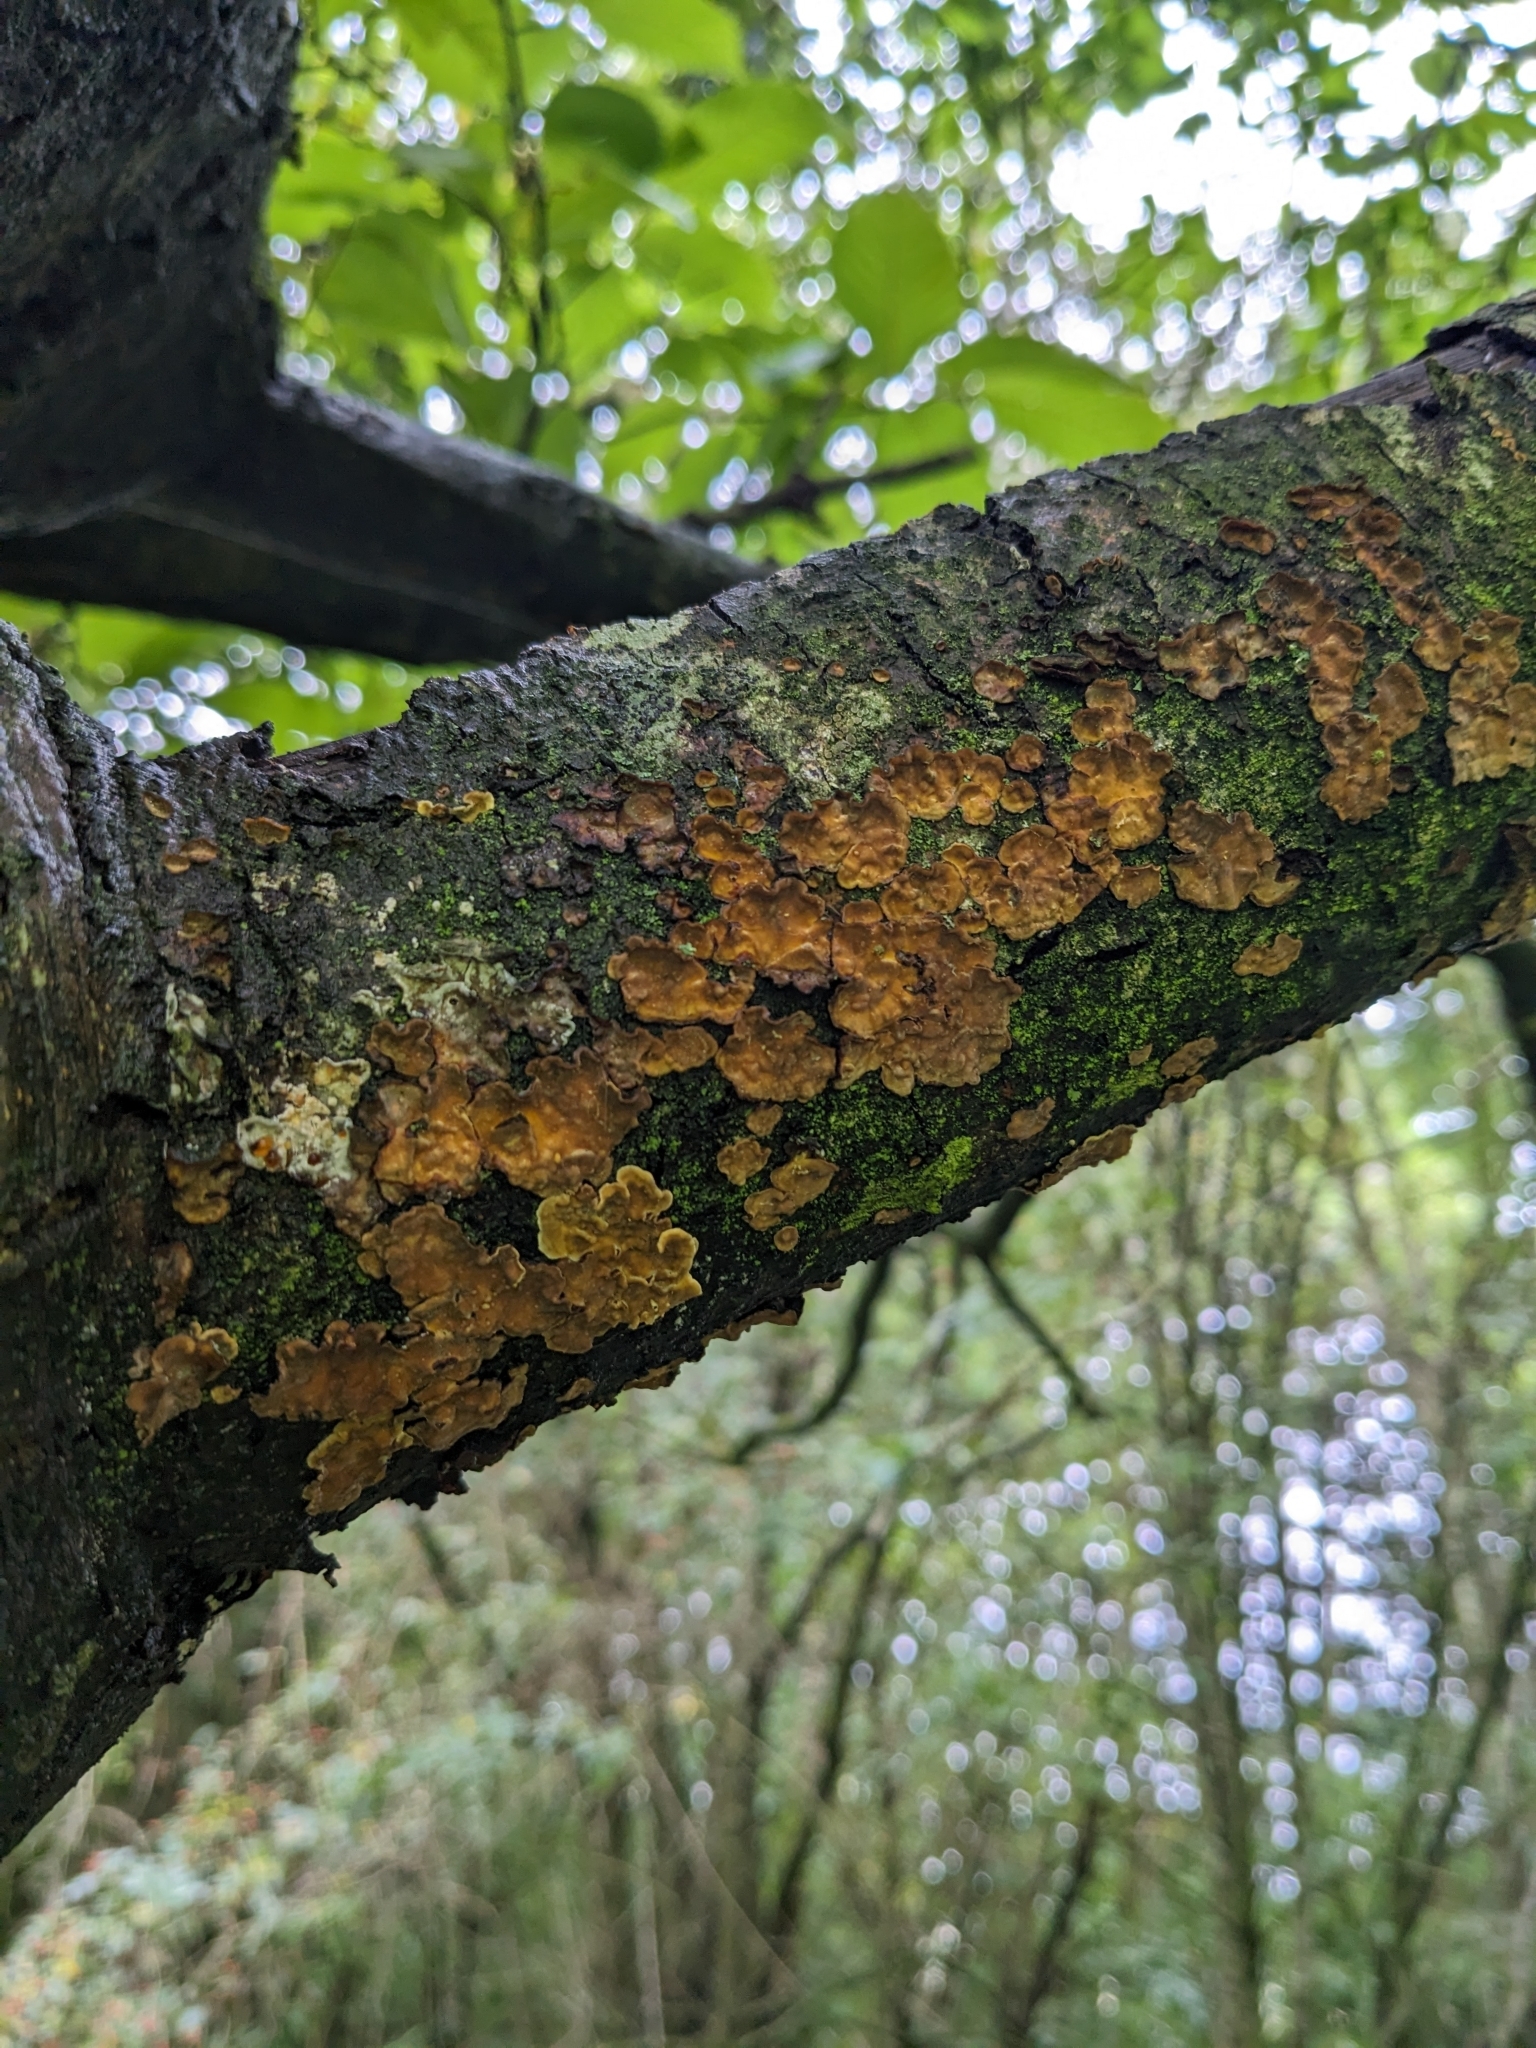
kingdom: Fungi
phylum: Basidiomycota
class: Agaricomycetes
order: Russulales
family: Stereaceae
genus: Stereum
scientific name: Stereum rugosum
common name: Bleeding broadleaf crust
